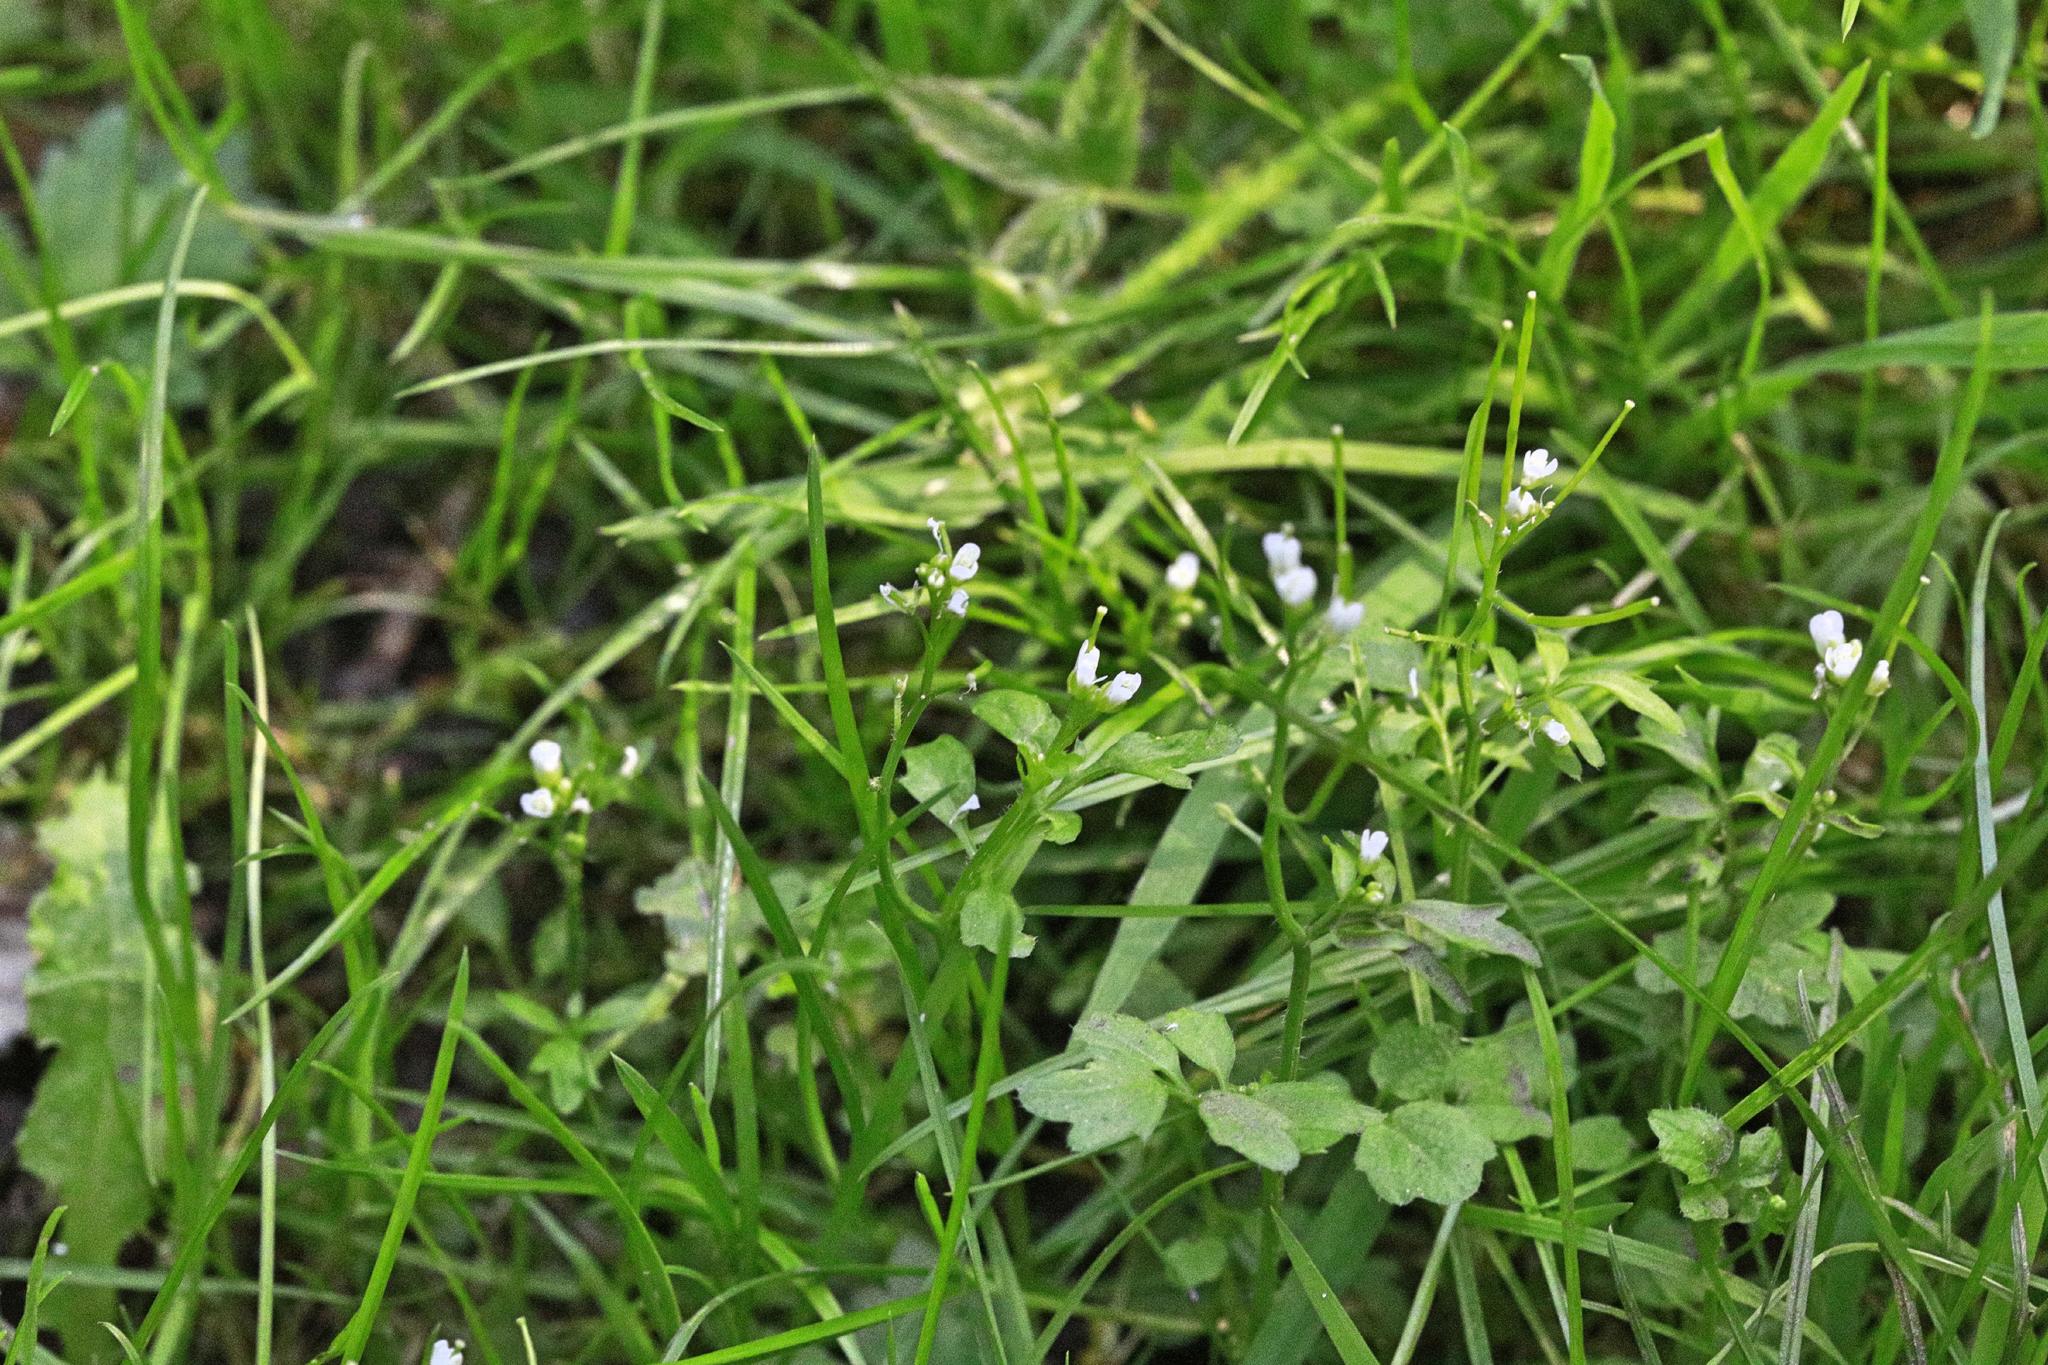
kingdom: Plantae
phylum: Tracheophyta
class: Magnoliopsida
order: Brassicales
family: Brassicaceae
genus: Cardamine
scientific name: Cardamine flexuosa
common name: Woodland bittercress
